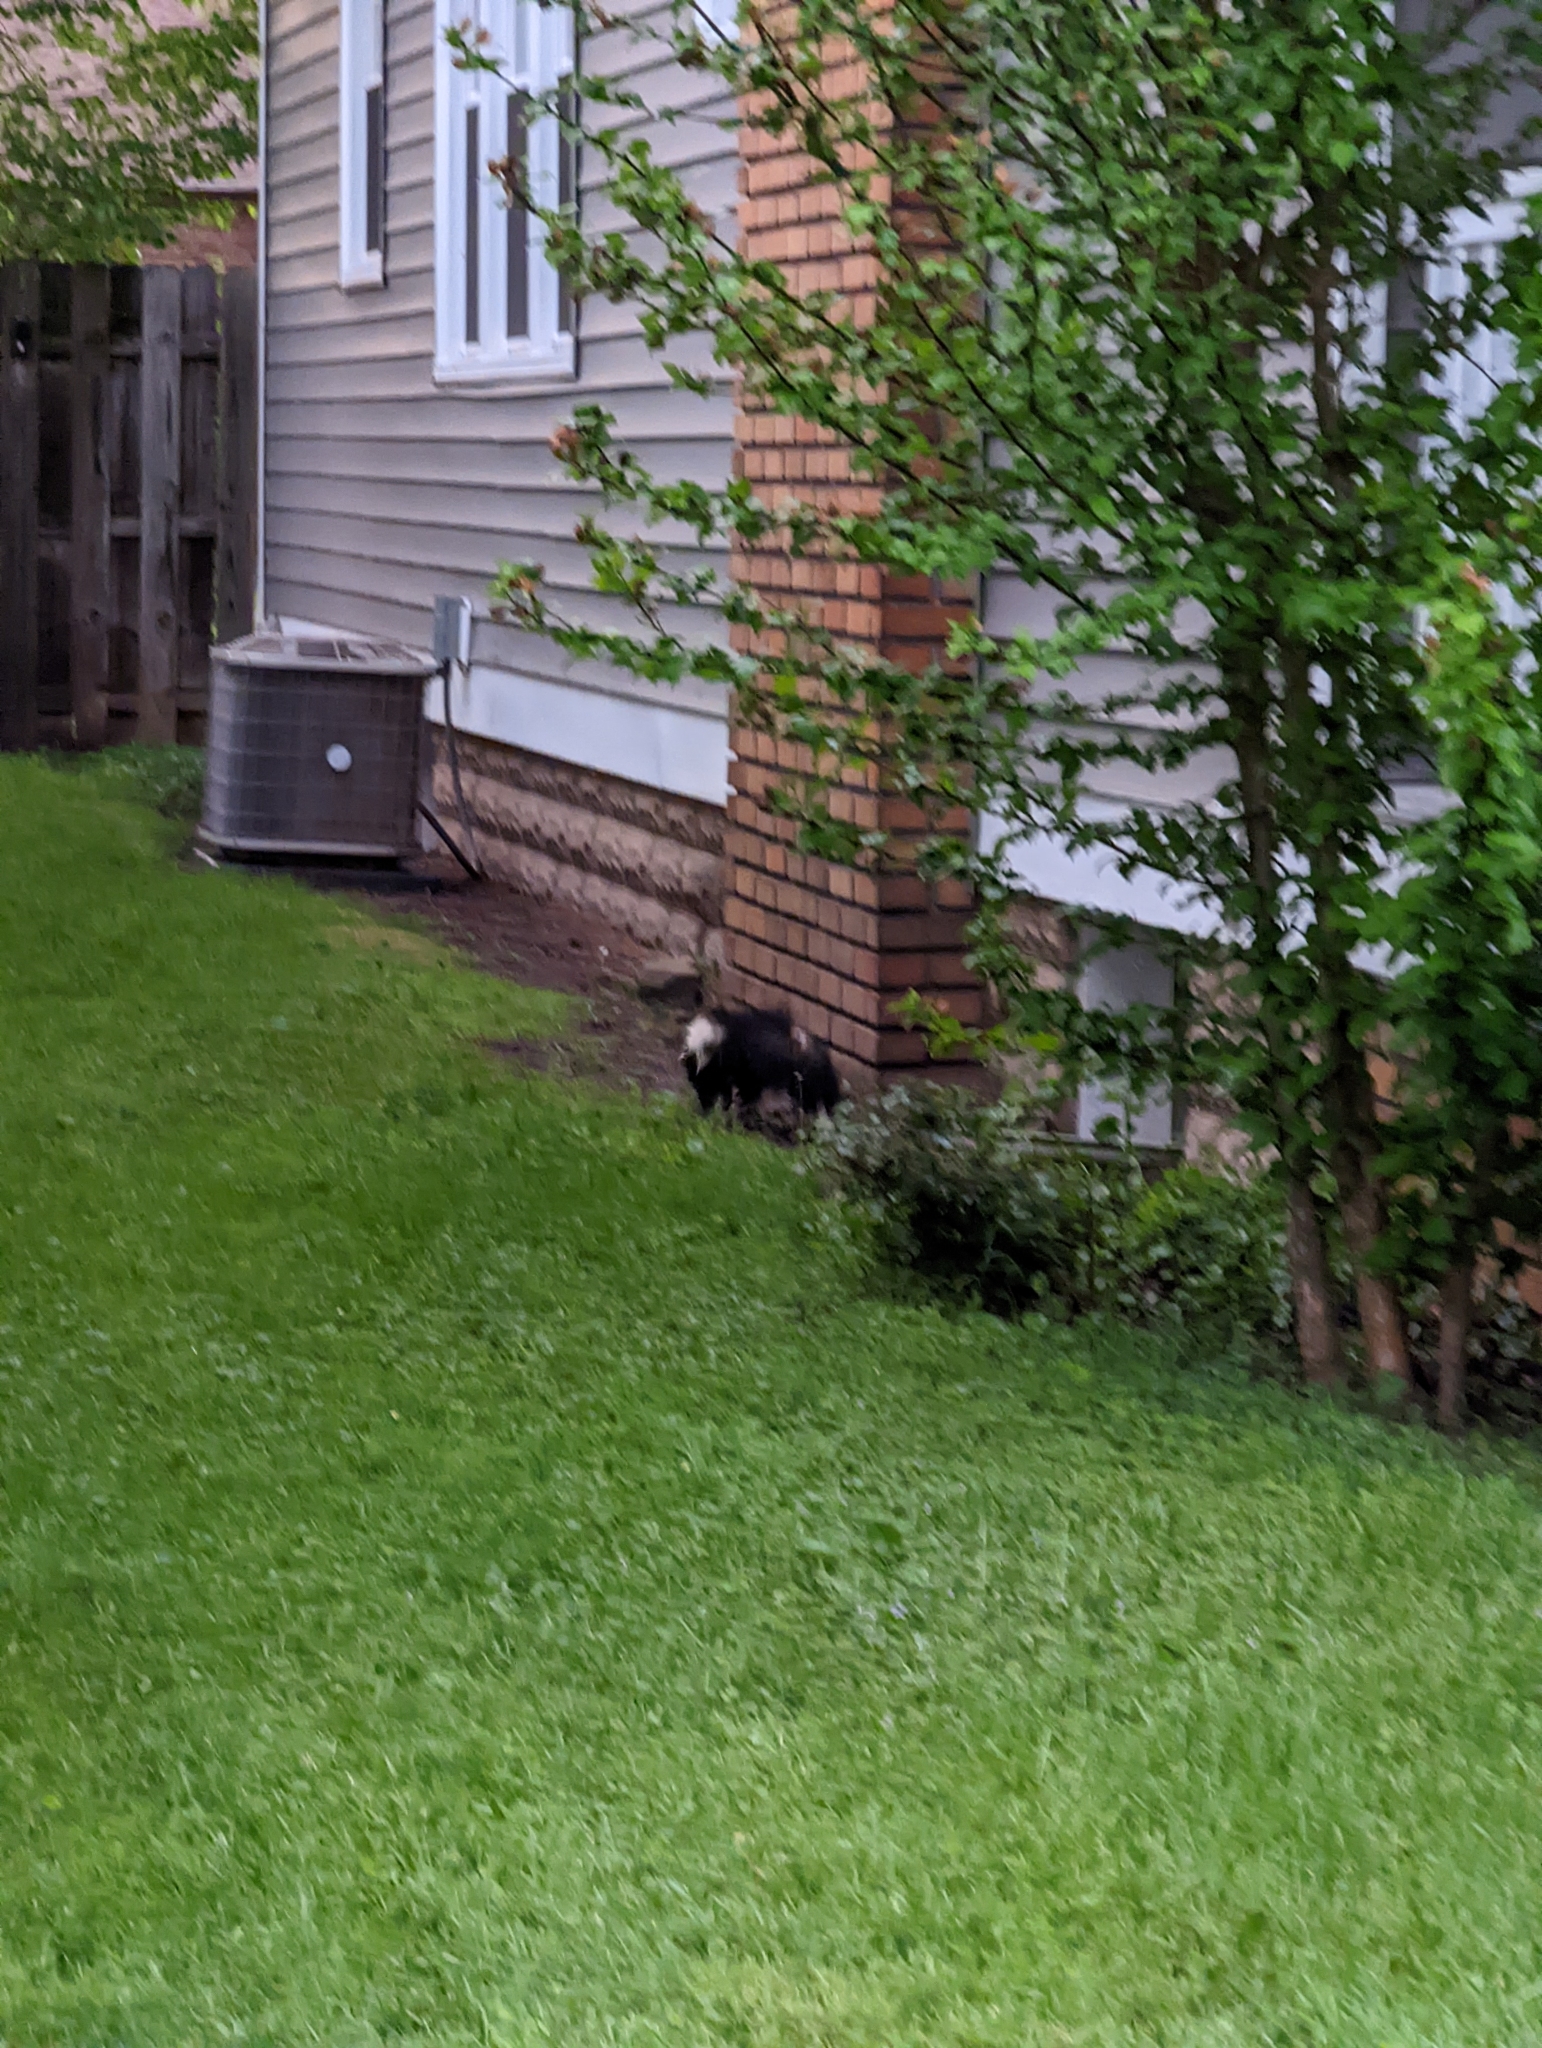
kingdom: Animalia
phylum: Chordata
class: Mammalia
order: Carnivora
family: Mephitidae
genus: Mephitis
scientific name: Mephitis mephitis
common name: Striped skunk
